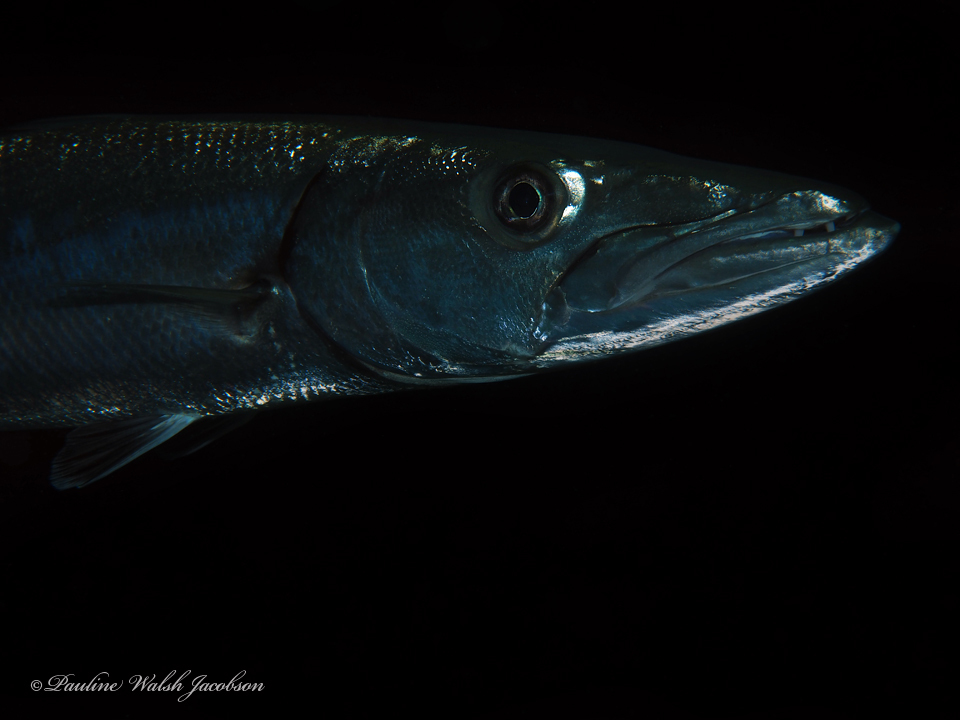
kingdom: Animalia
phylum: Chordata
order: Perciformes
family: Sphyraenidae
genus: Sphyraena
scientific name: Sphyraena barracuda
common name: Great barracuda
